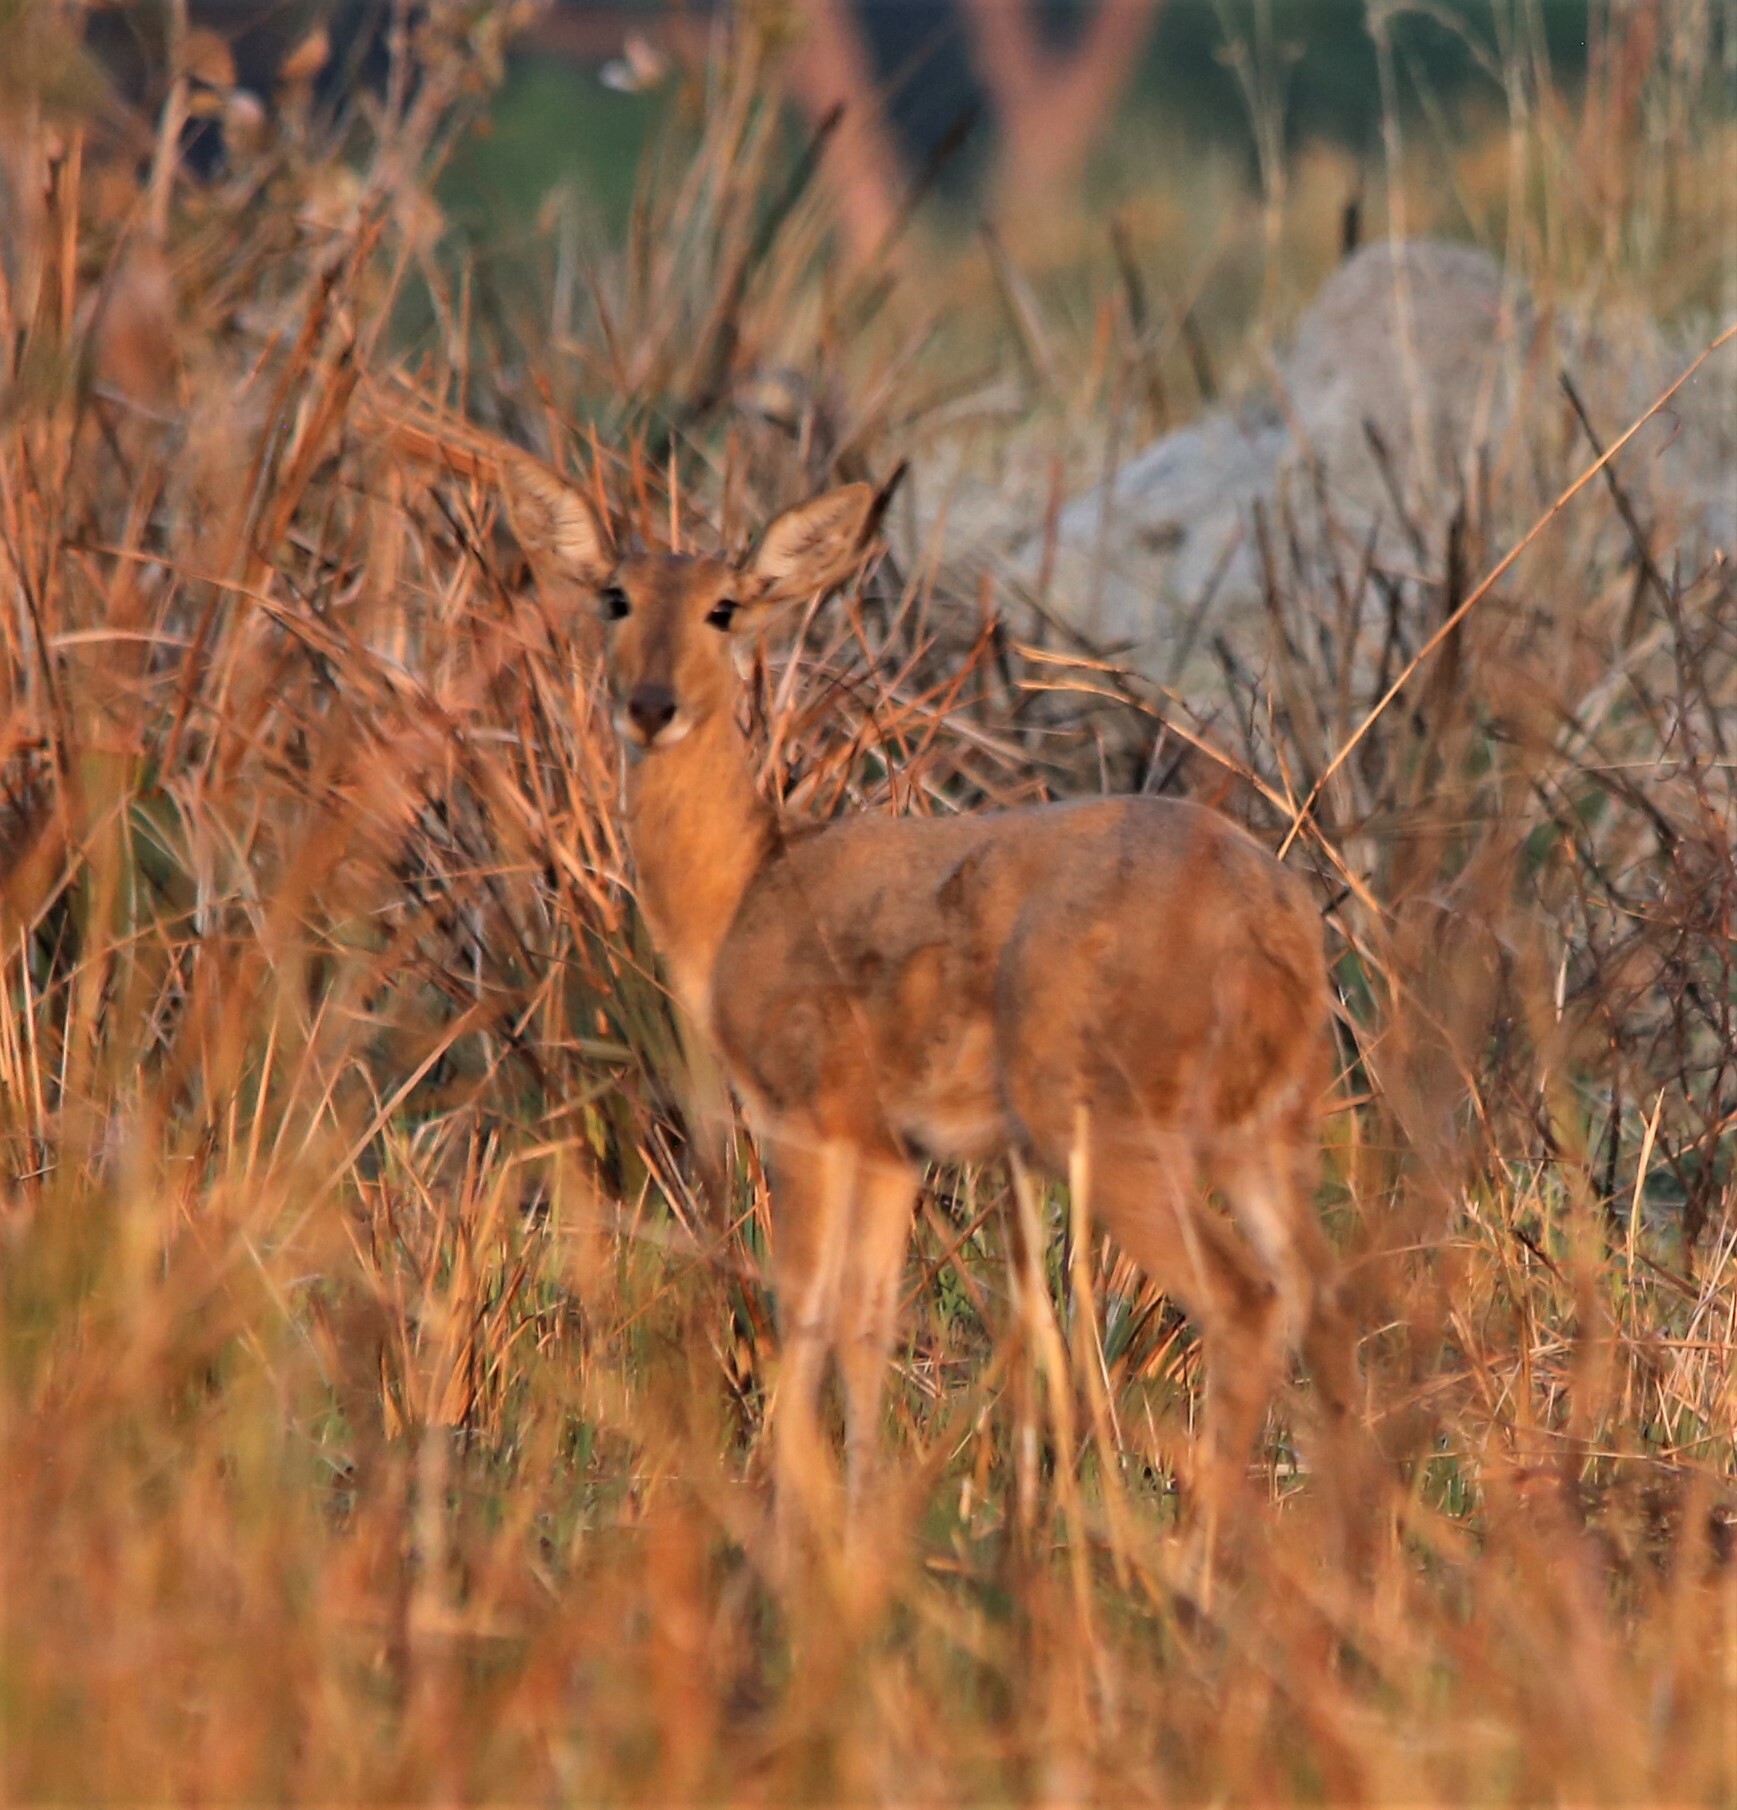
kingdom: Animalia
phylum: Chordata
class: Mammalia
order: Artiodactyla
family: Bovidae
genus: Redunca
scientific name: Redunca arundinum
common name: Southern reedbuck
